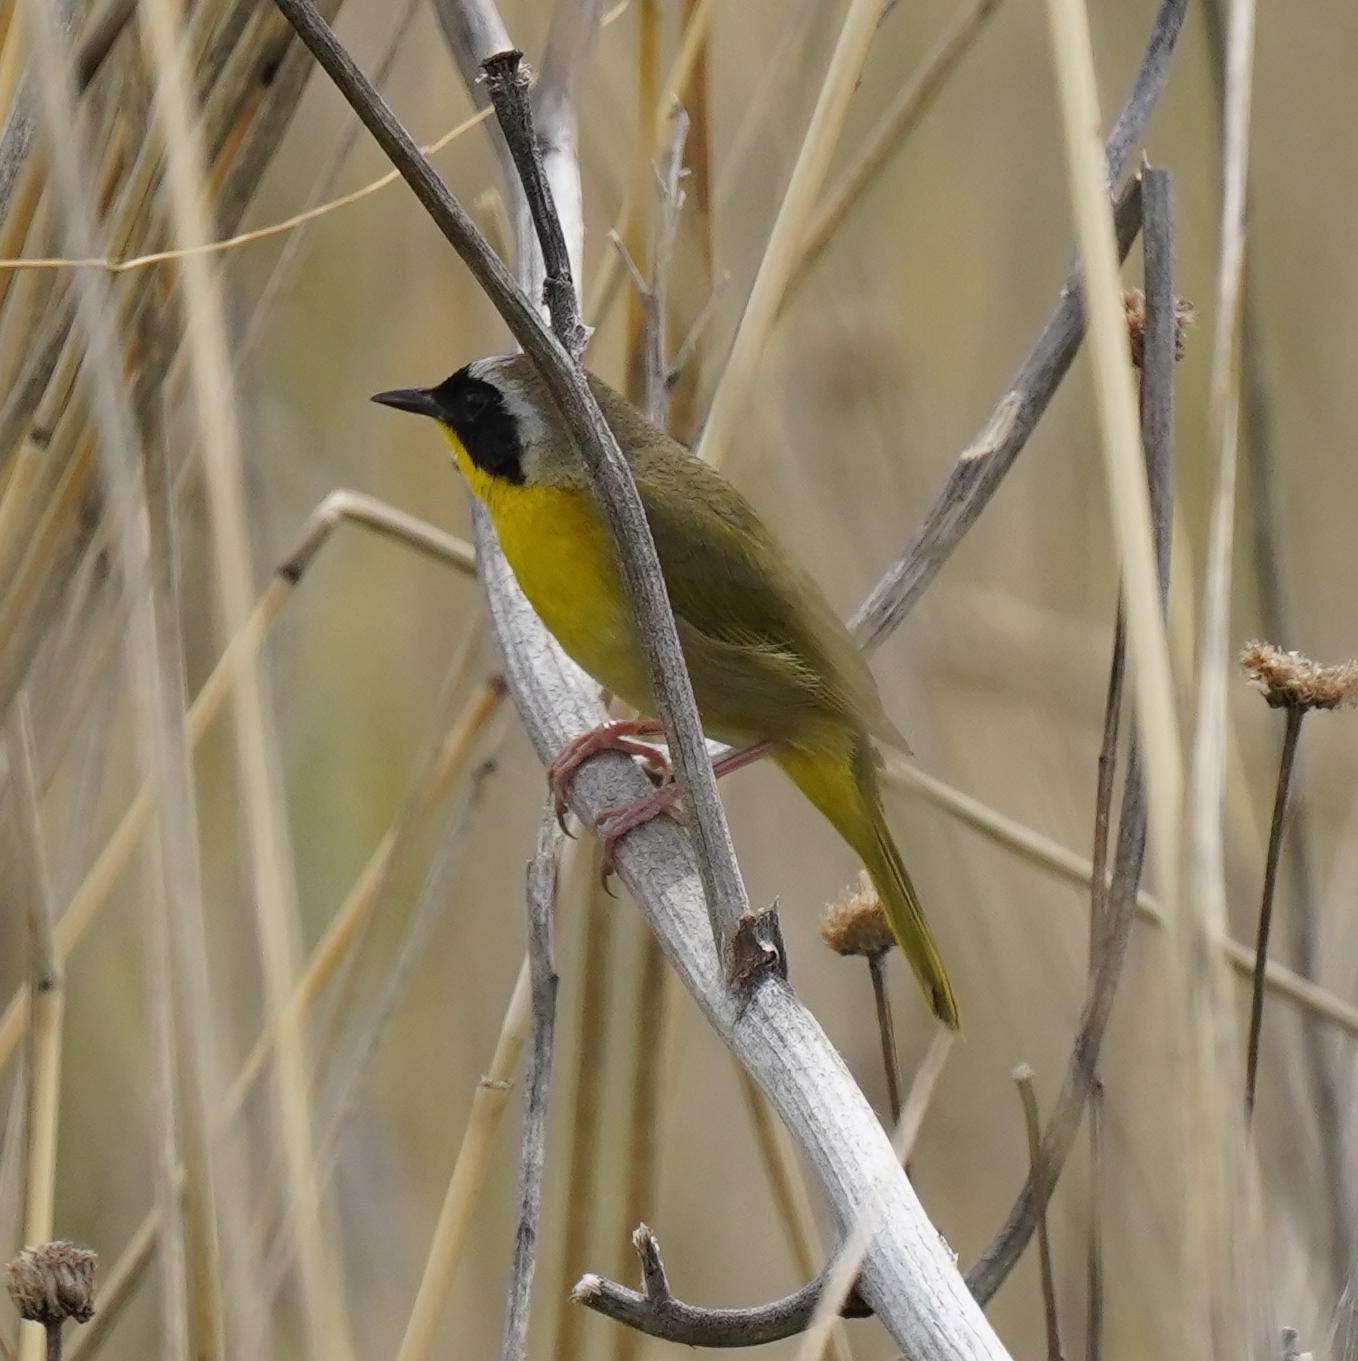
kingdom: Animalia
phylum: Chordata
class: Aves
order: Passeriformes
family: Parulidae
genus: Geothlypis
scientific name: Geothlypis trichas
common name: Common yellowthroat
